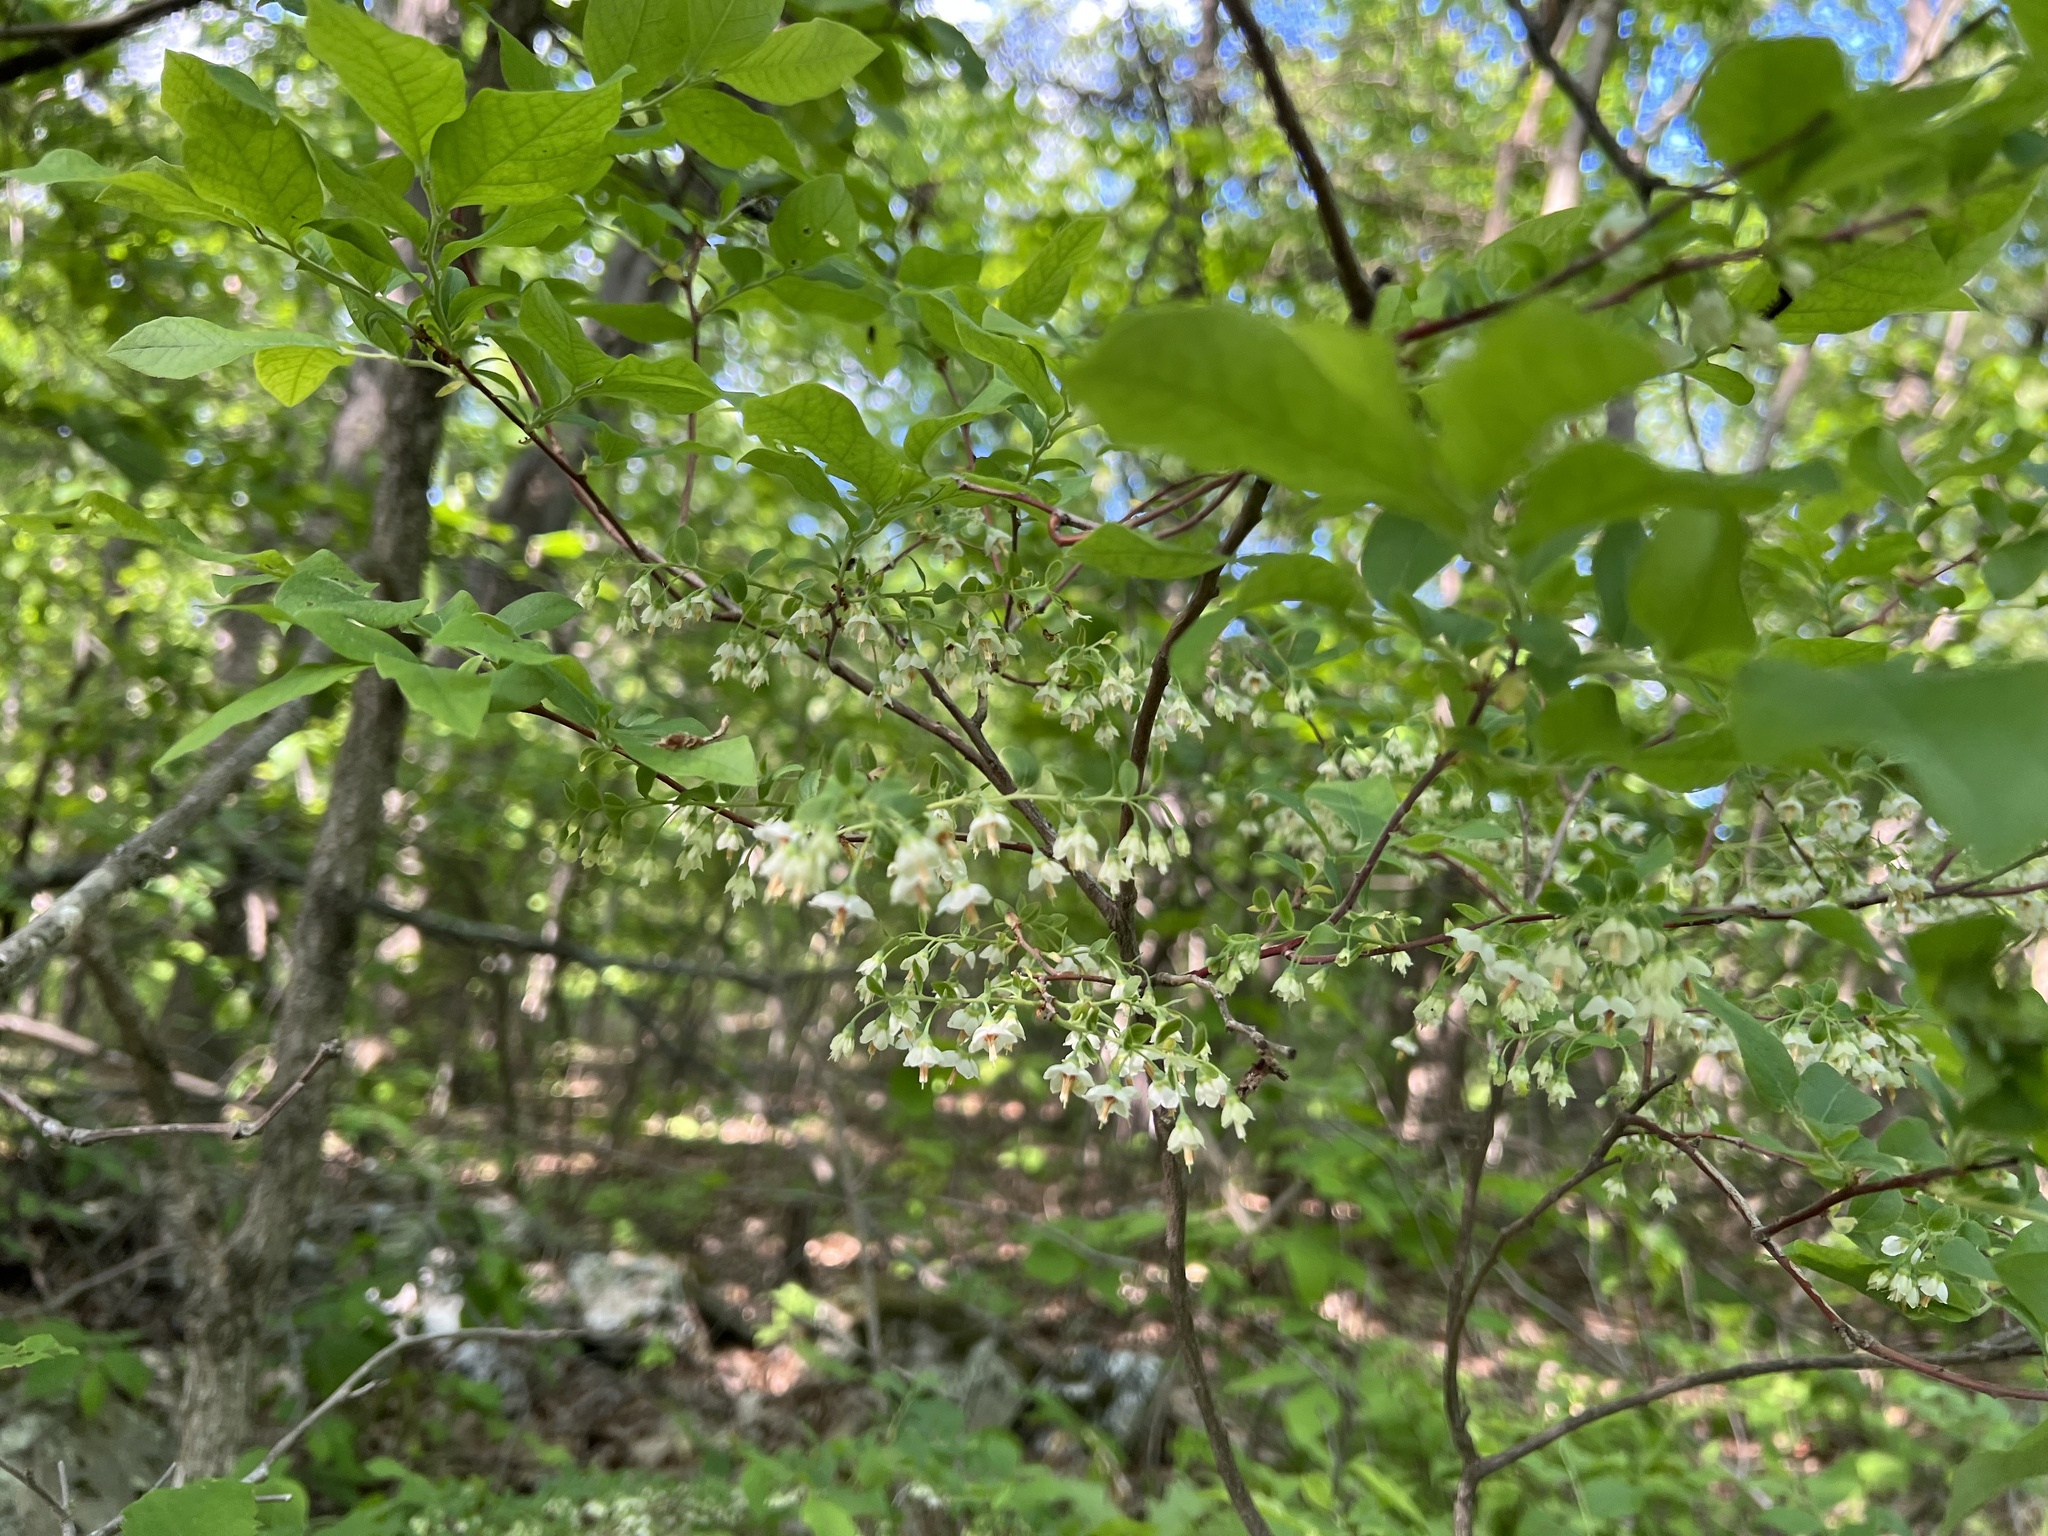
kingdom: Plantae
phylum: Tracheophyta
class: Magnoliopsida
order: Ericales
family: Ericaceae
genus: Vaccinium
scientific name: Vaccinium stamineum
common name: Deerberry
